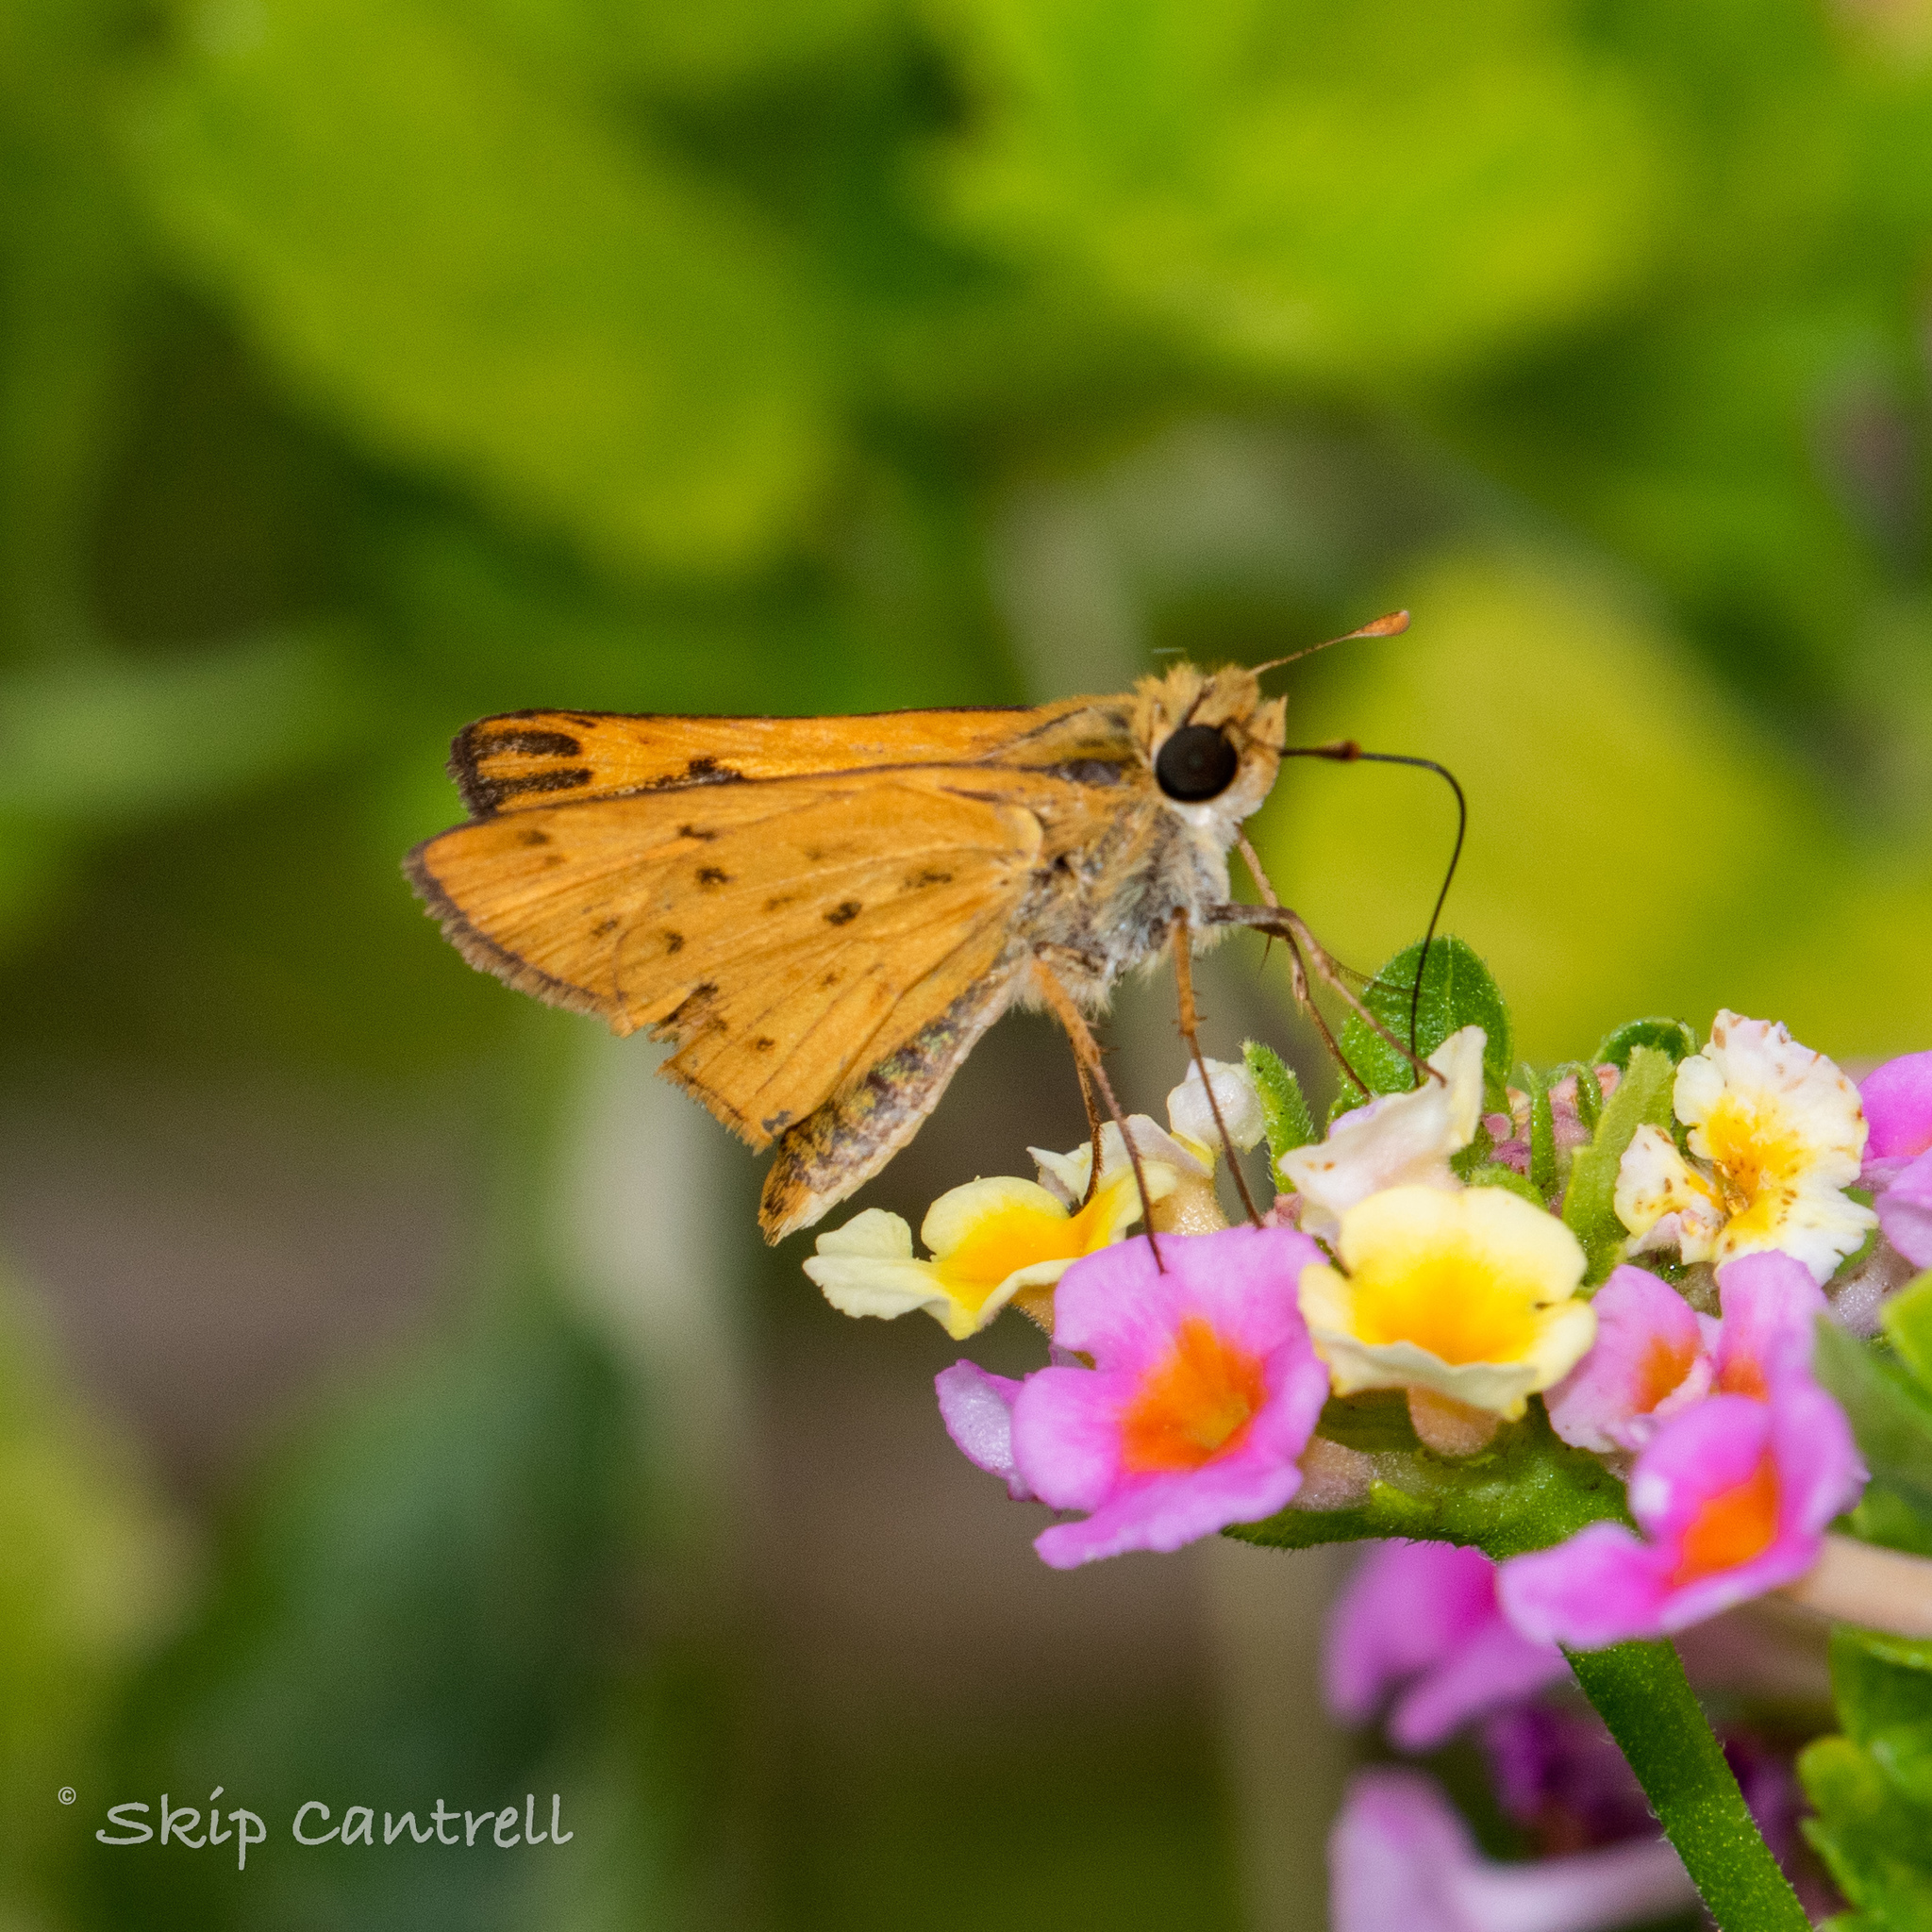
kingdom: Animalia
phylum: Arthropoda
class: Insecta
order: Lepidoptera
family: Hesperiidae
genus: Hylephila
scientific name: Hylephila phyleus
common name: Fiery skipper
